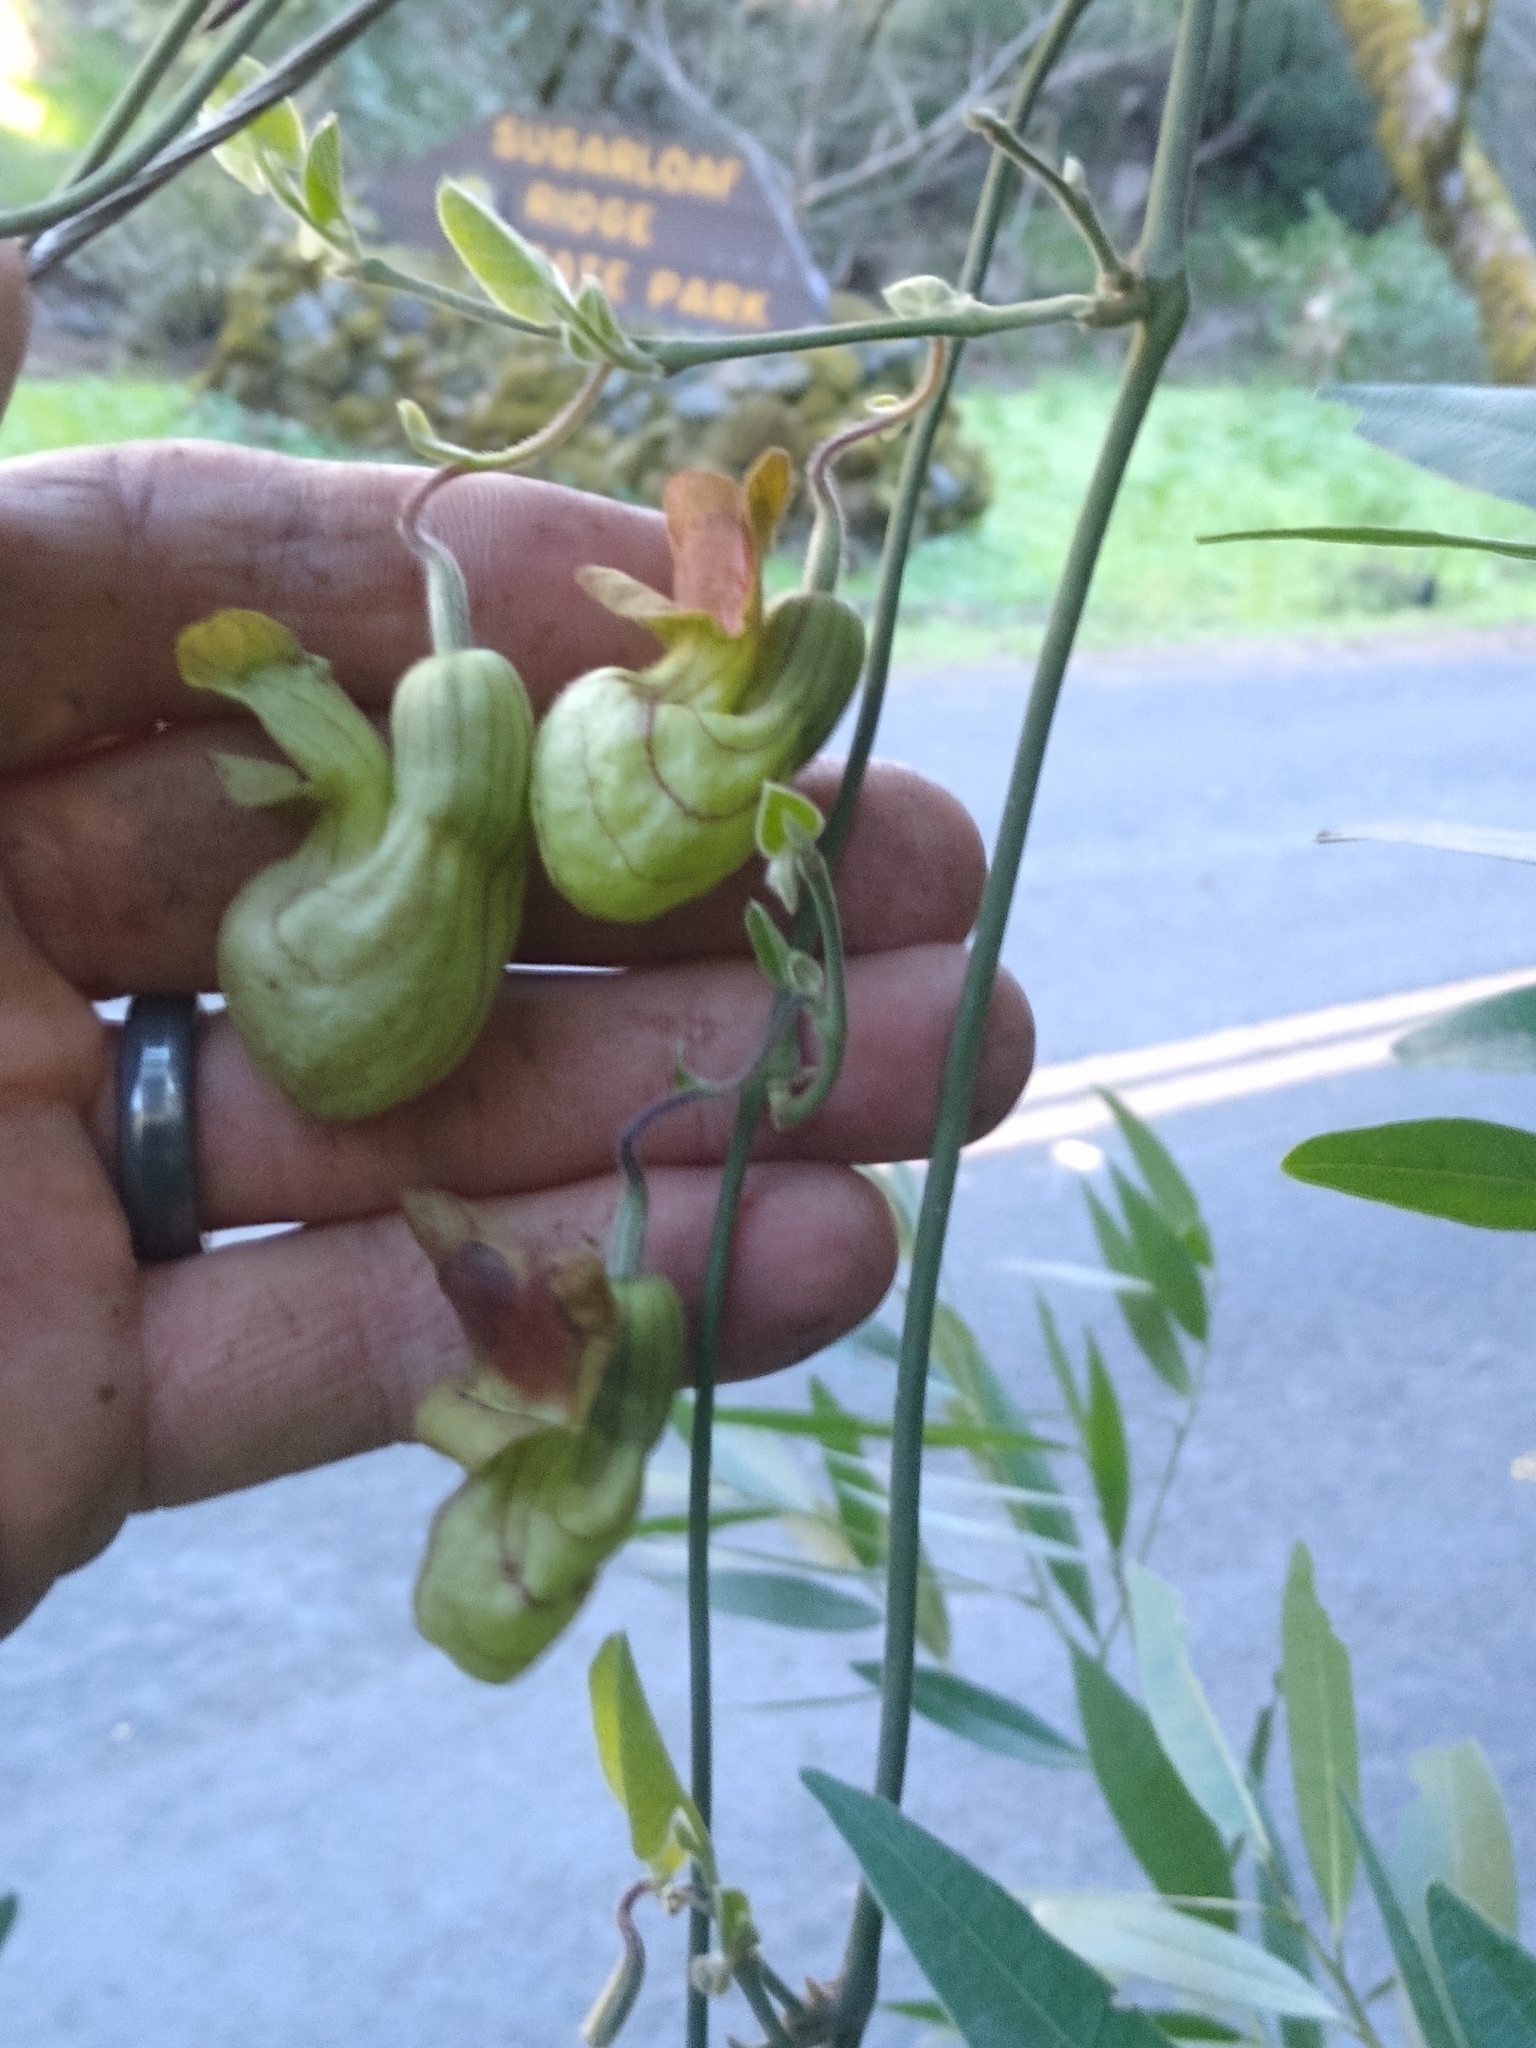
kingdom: Plantae
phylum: Tracheophyta
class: Magnoliopsida
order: Piperales
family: Aristolochiaceae
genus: Isotrema
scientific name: Isotrema californicum
